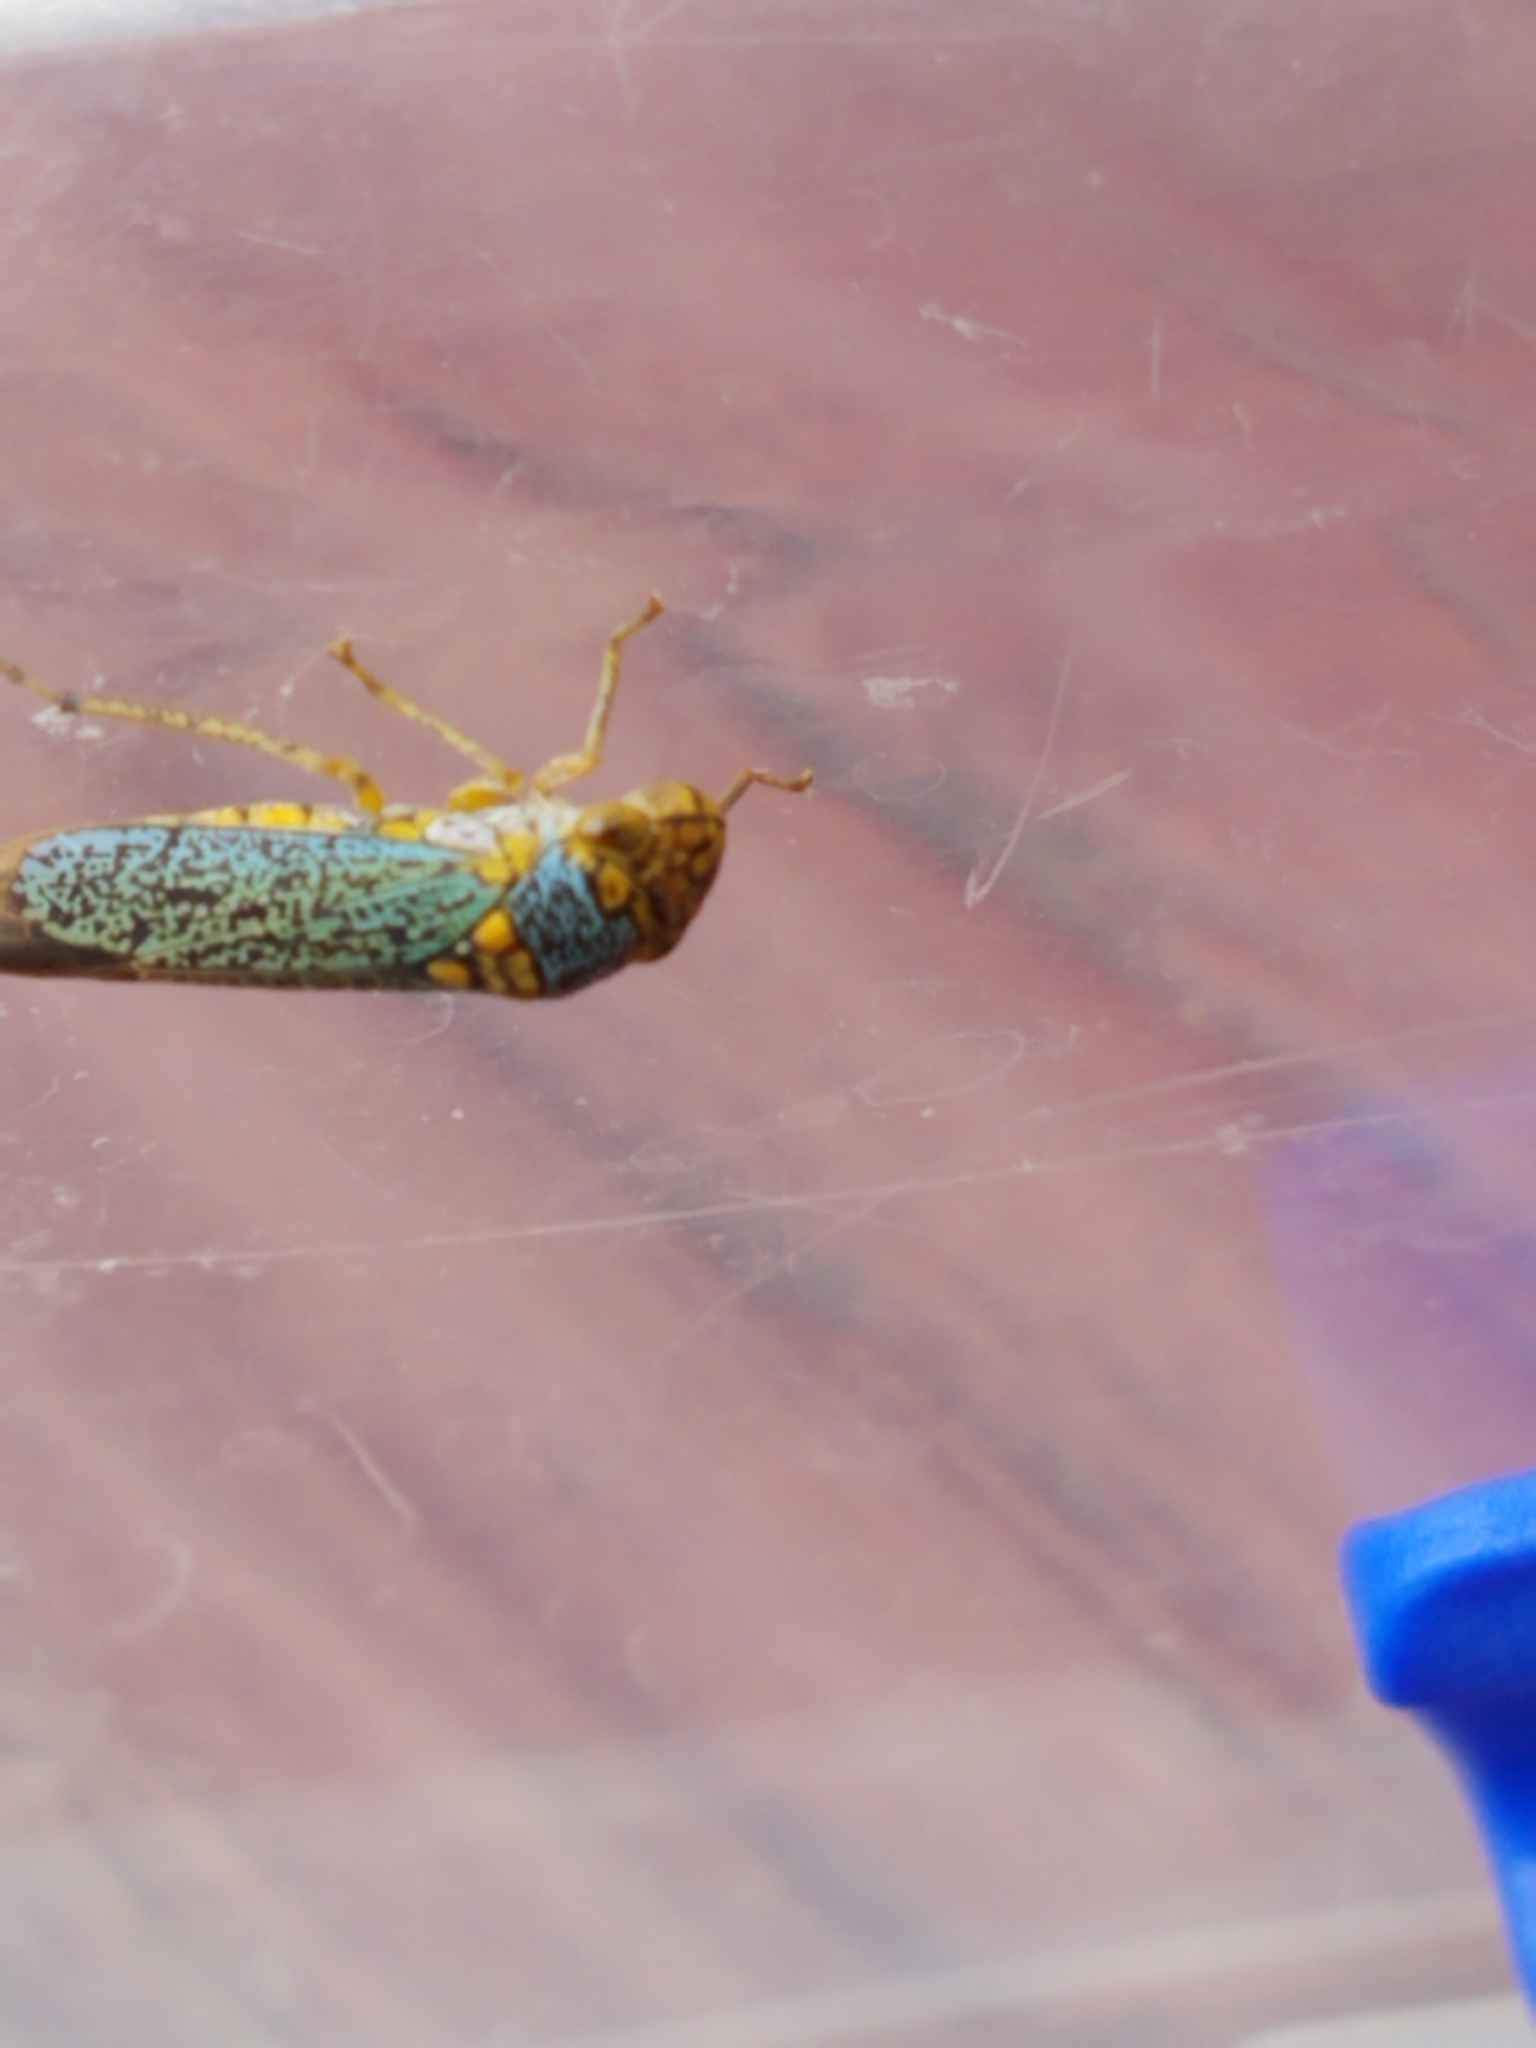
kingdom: Animalia
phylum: Arthropoda
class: Insecta
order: Hemiptera
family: Cicadellidae
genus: Oncometopia
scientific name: Oncometopia orbona
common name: Broad-headed sharpshooter
